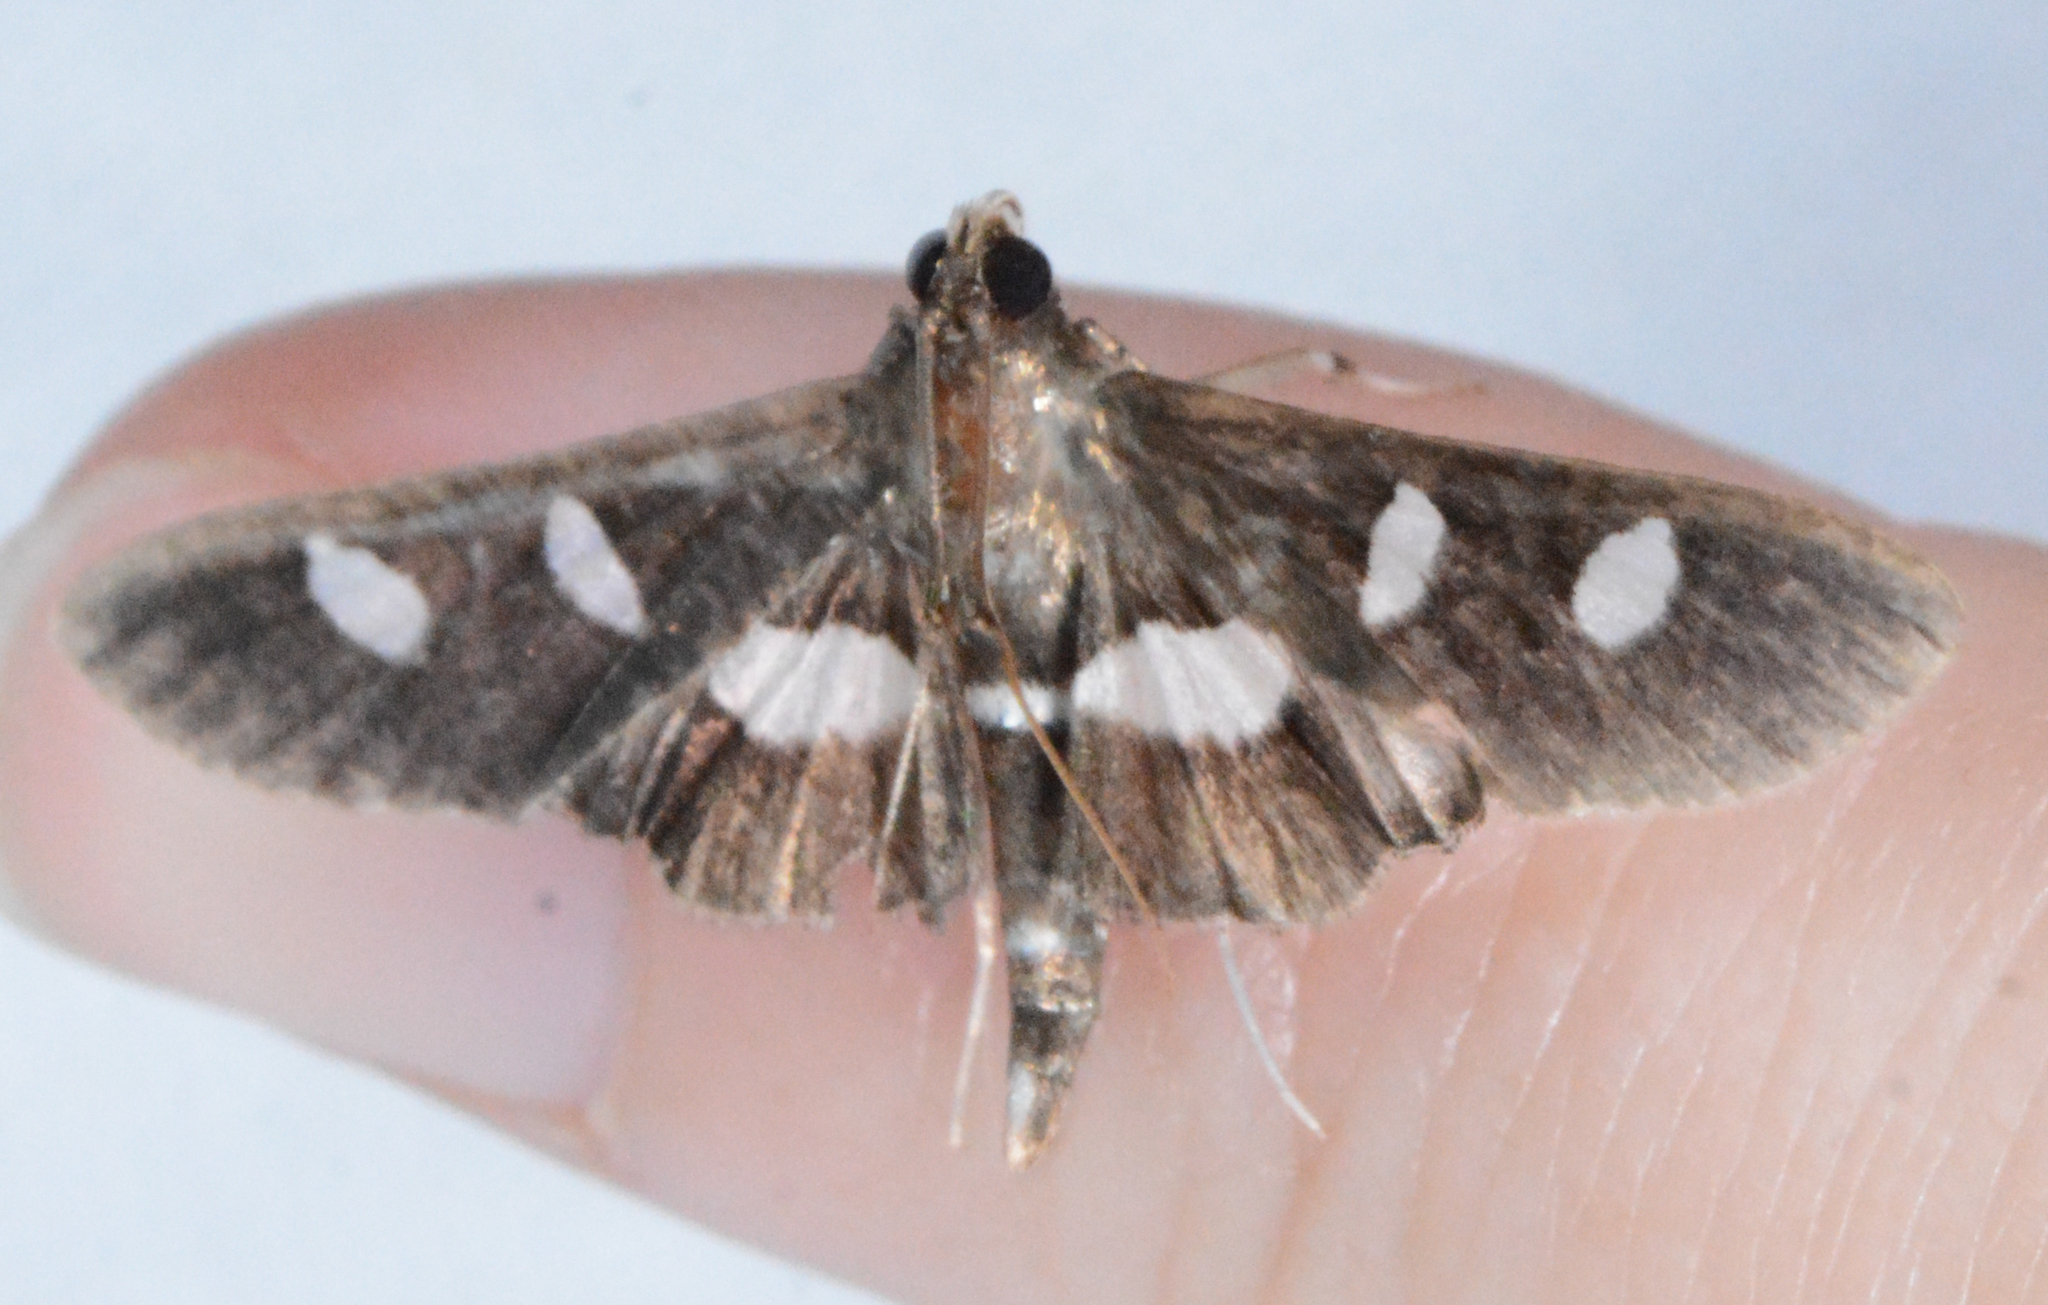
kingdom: Animalia
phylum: Arthropoda
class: Insecta
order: Lepidoptera
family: Crambidae
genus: Desmia
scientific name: Desmia funeralis
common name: Grape leaf folder moth
